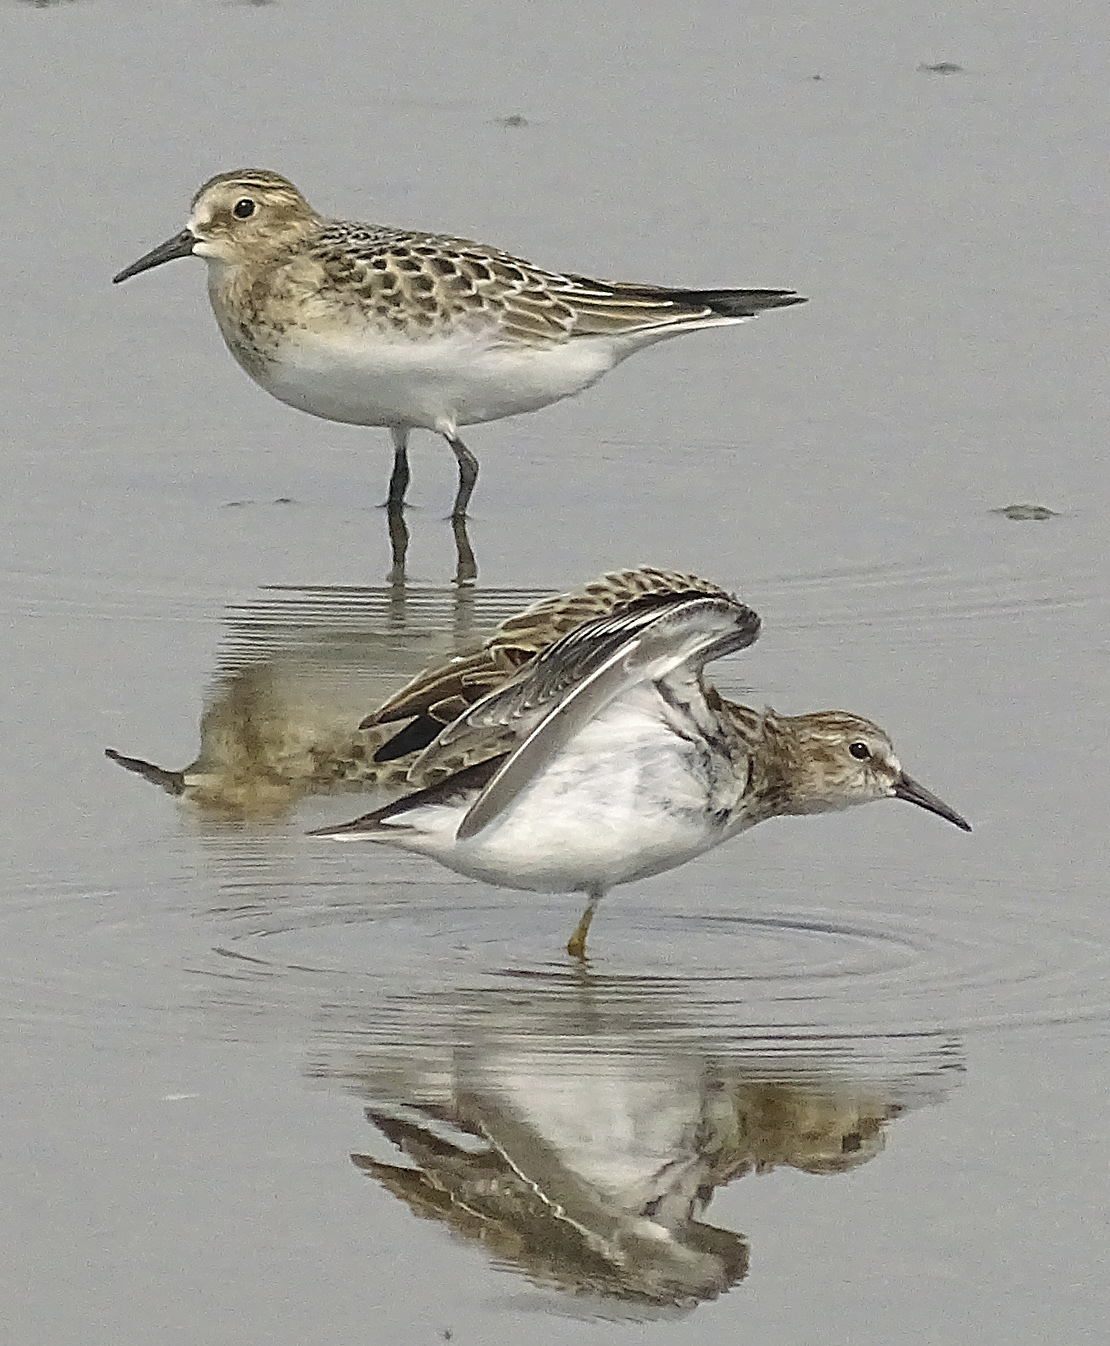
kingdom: Animalia
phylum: Chordata
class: Aves
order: Charadriiformes
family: Scolopacidae
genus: Calidris
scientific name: Calidris bairdii
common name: Baird's sandpiper
